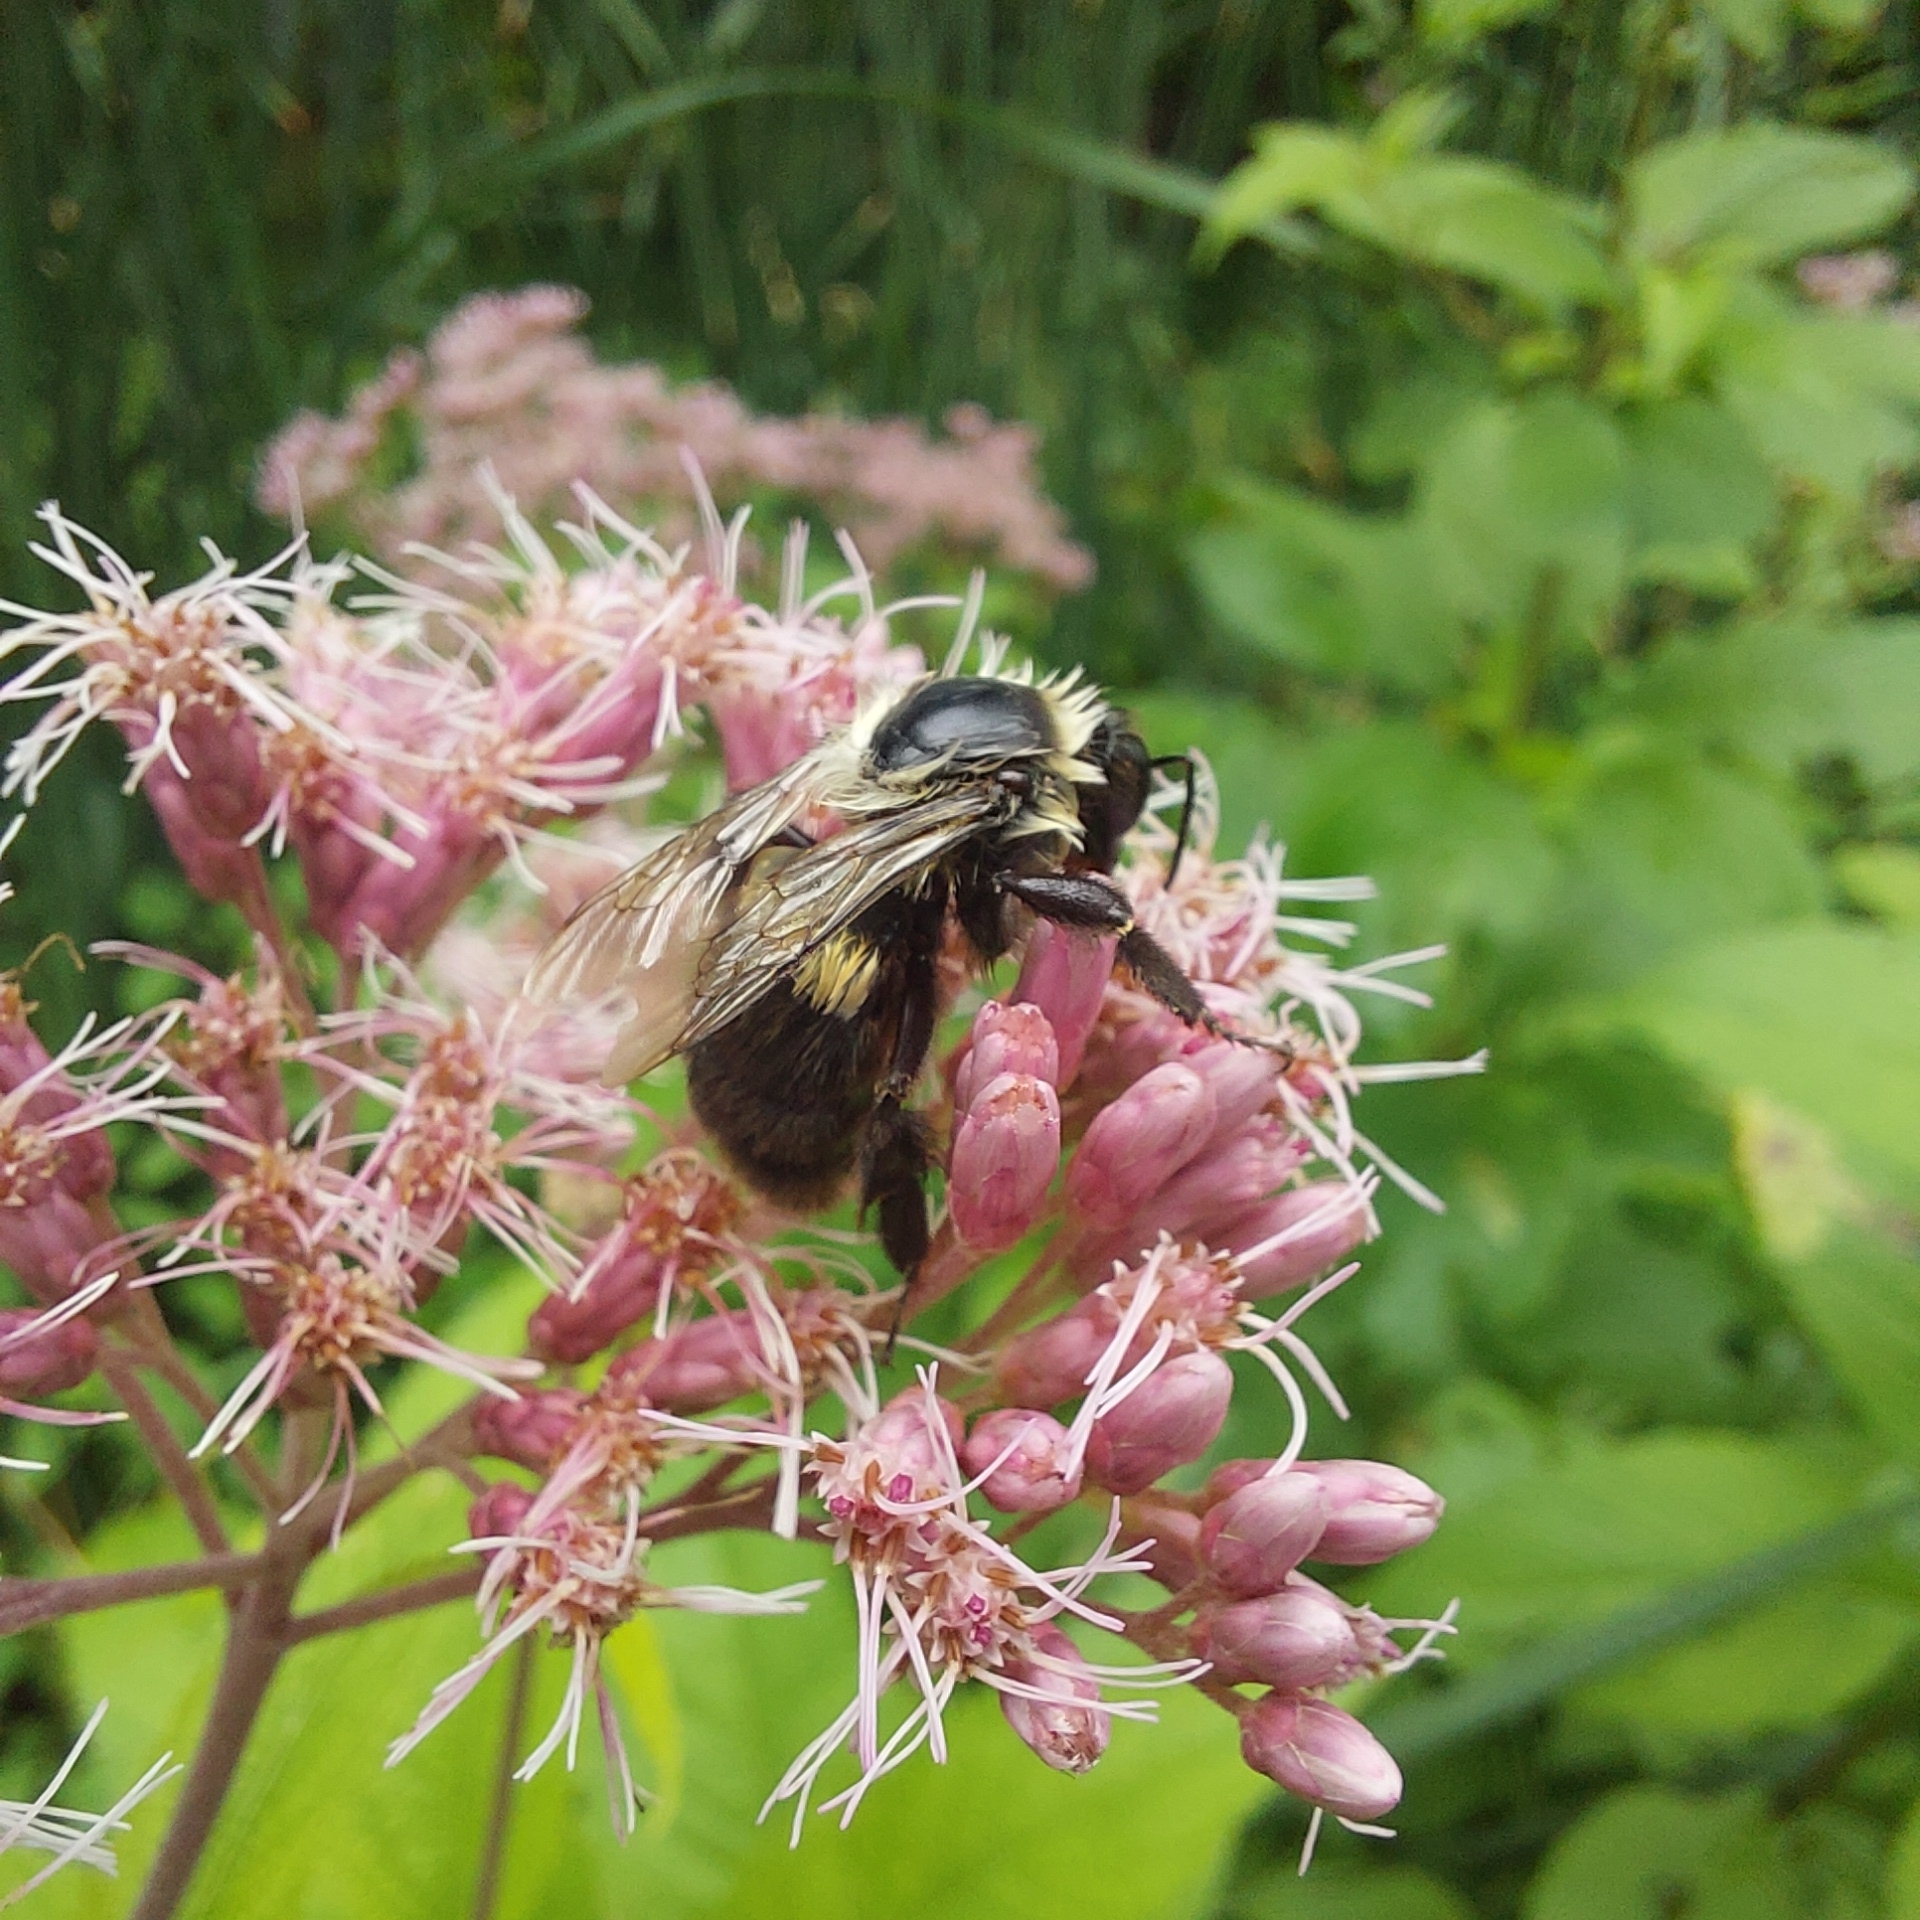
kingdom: Animalia
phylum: Arthropoda
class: Insecta
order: Hymenoptera
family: Apidae
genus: Bombus
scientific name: Bombus impatiens
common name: Common eastern bumble bee
